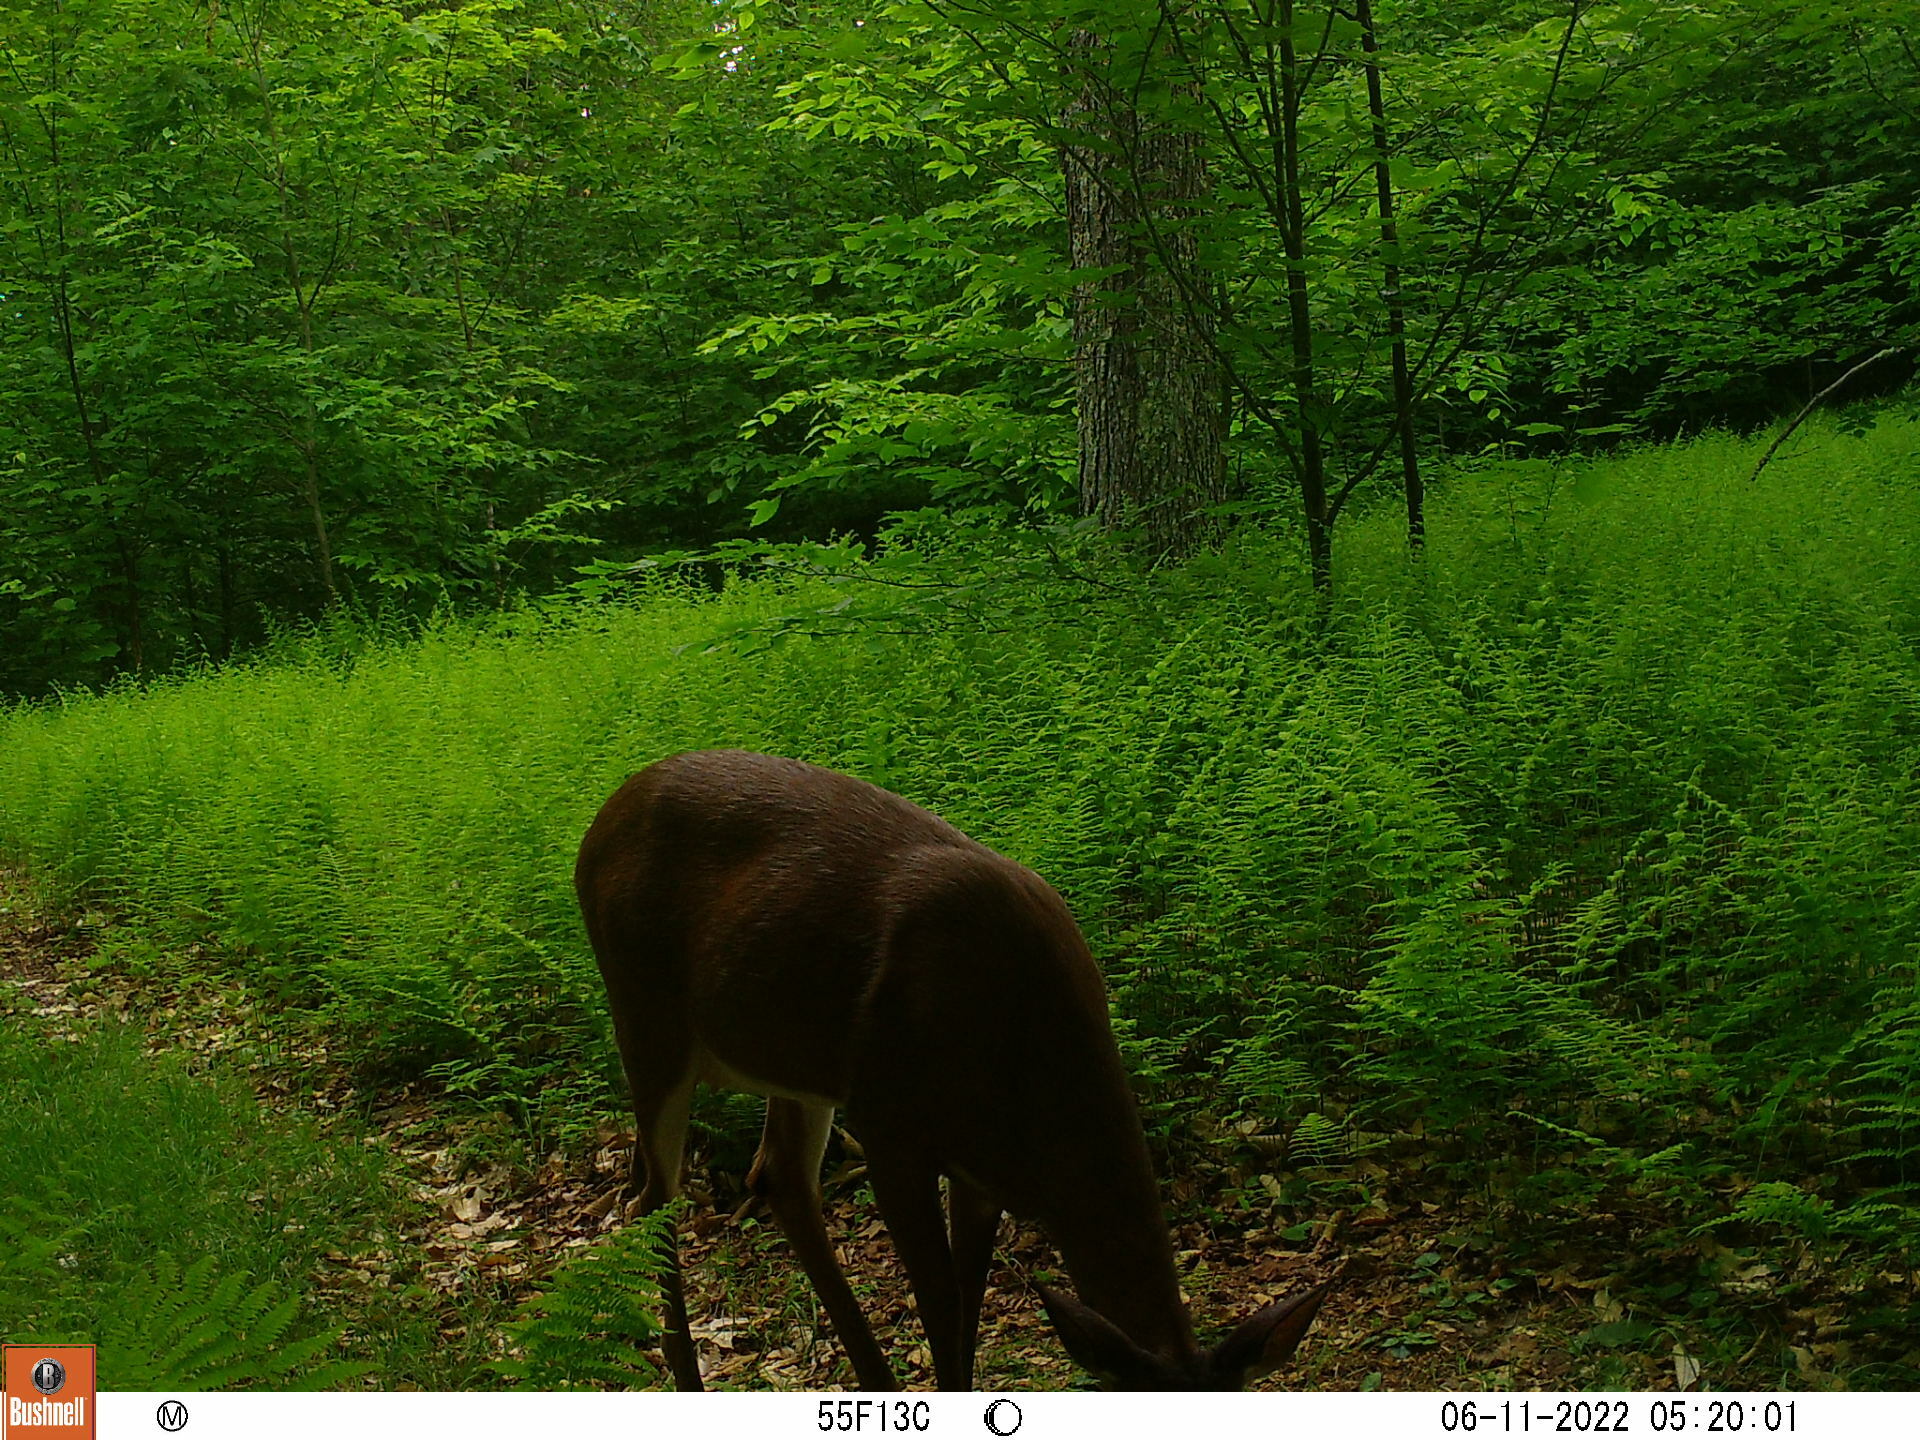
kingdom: Animalia
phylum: Chordata
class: Mammalia
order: Artiodactyla
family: Cervidae
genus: Odocoileus
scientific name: Odocoileus virginianus
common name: White-tailed deer
